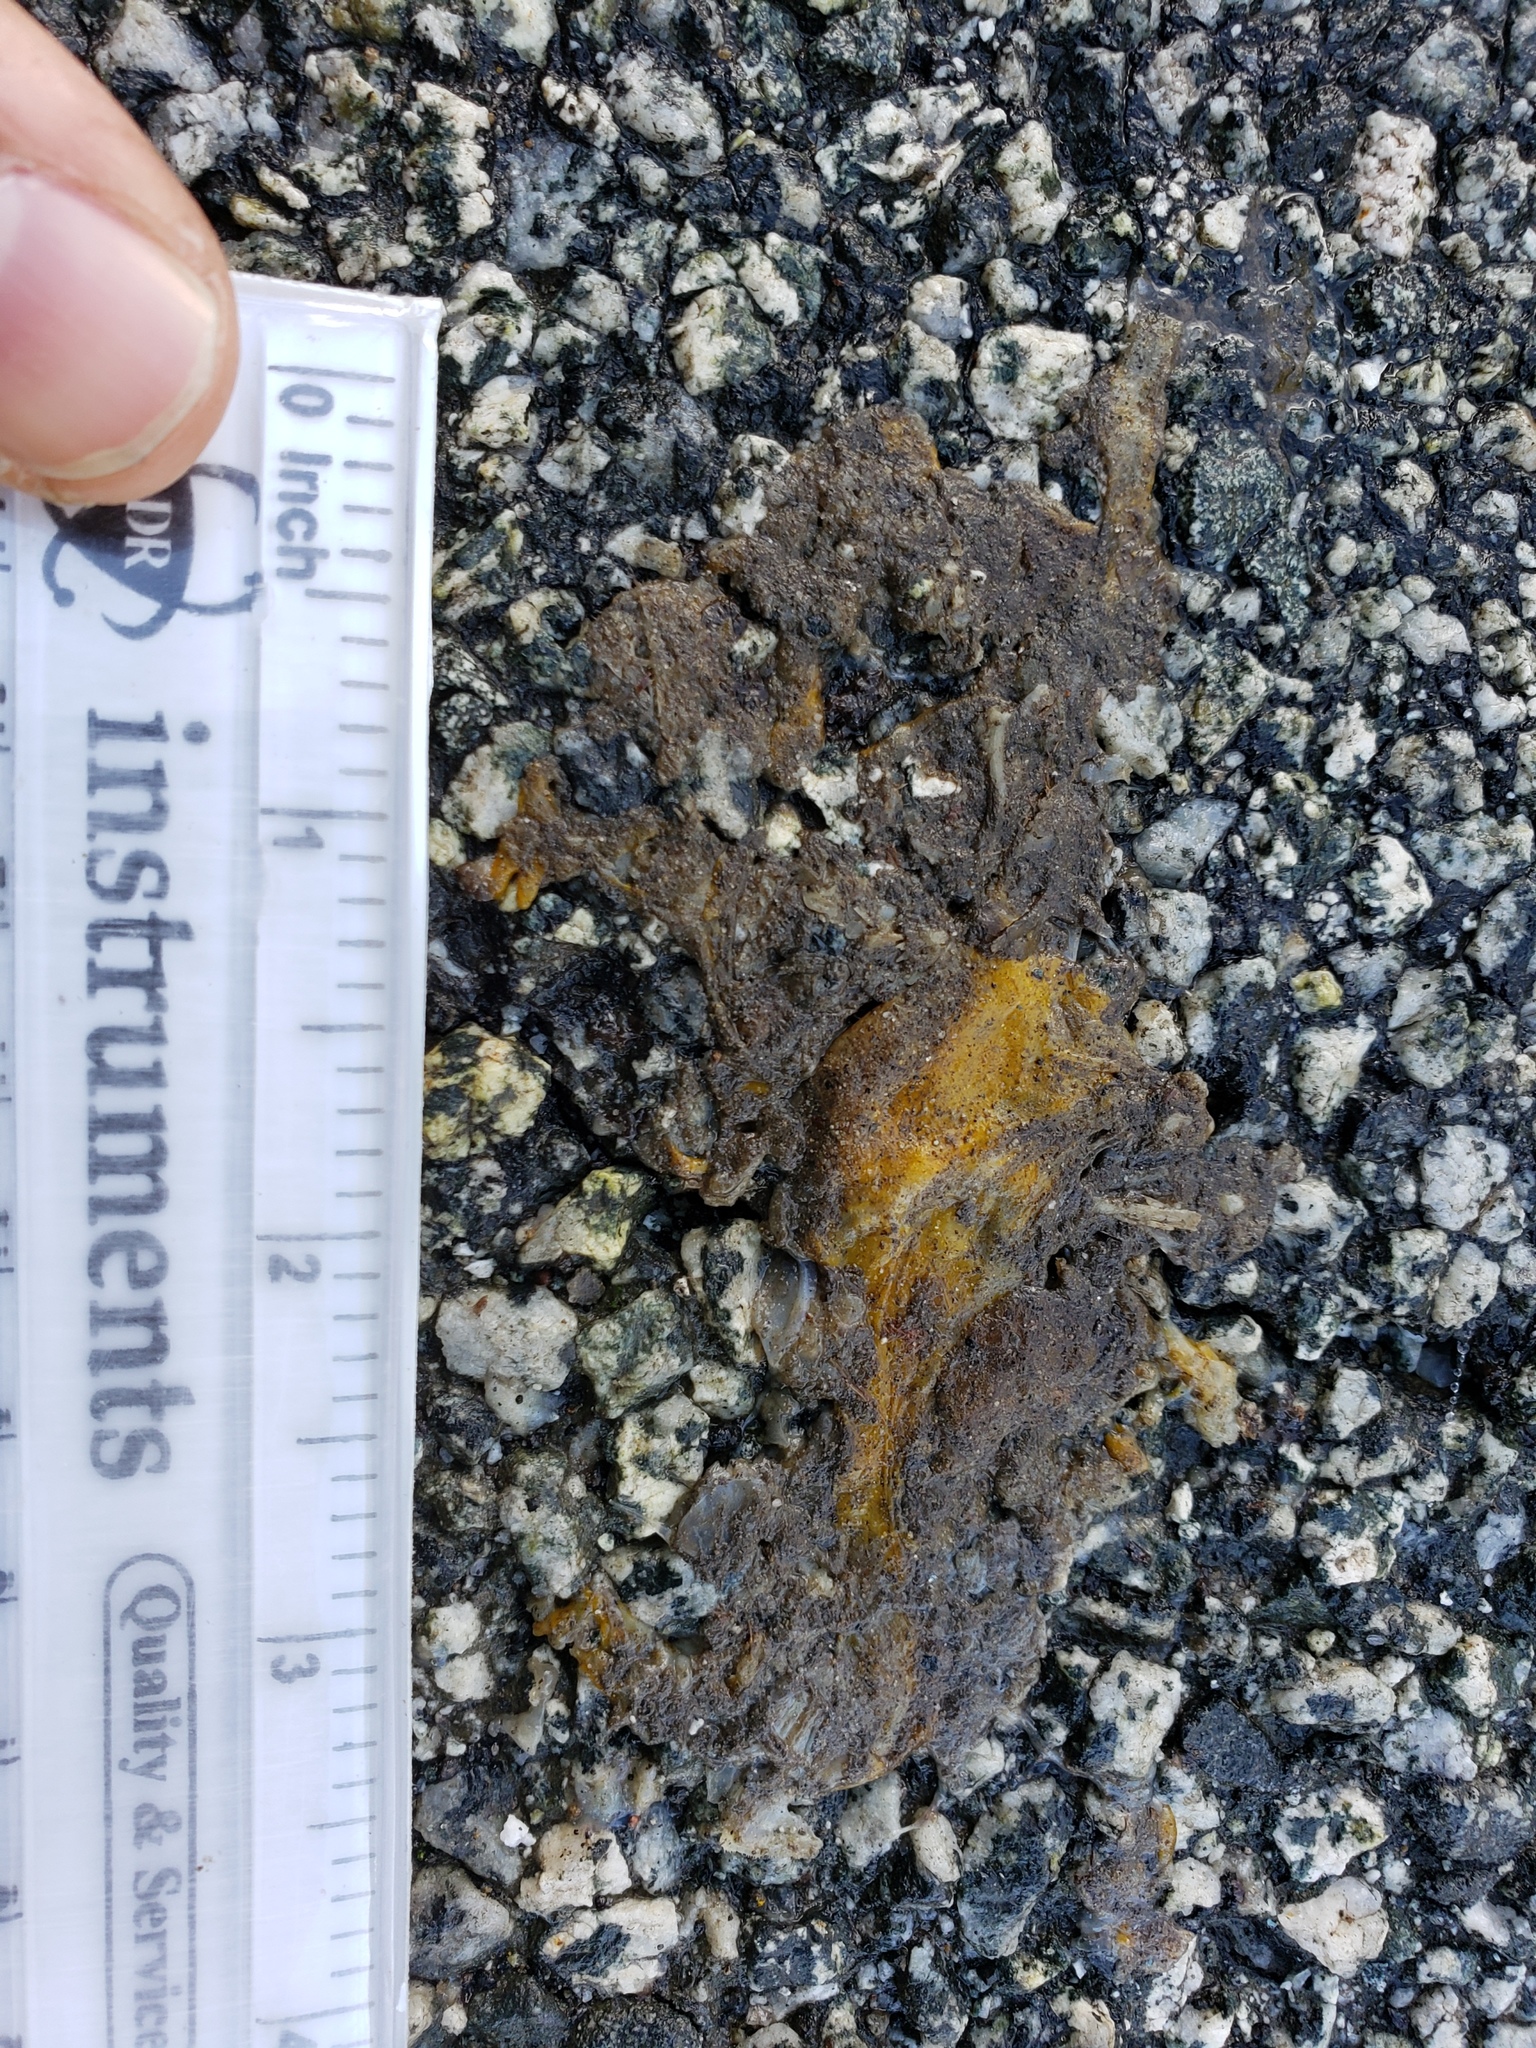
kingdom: Animalia
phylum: Chordata
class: Amphibia
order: Caudata
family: Salamandridae
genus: Taricha
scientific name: Taricha
